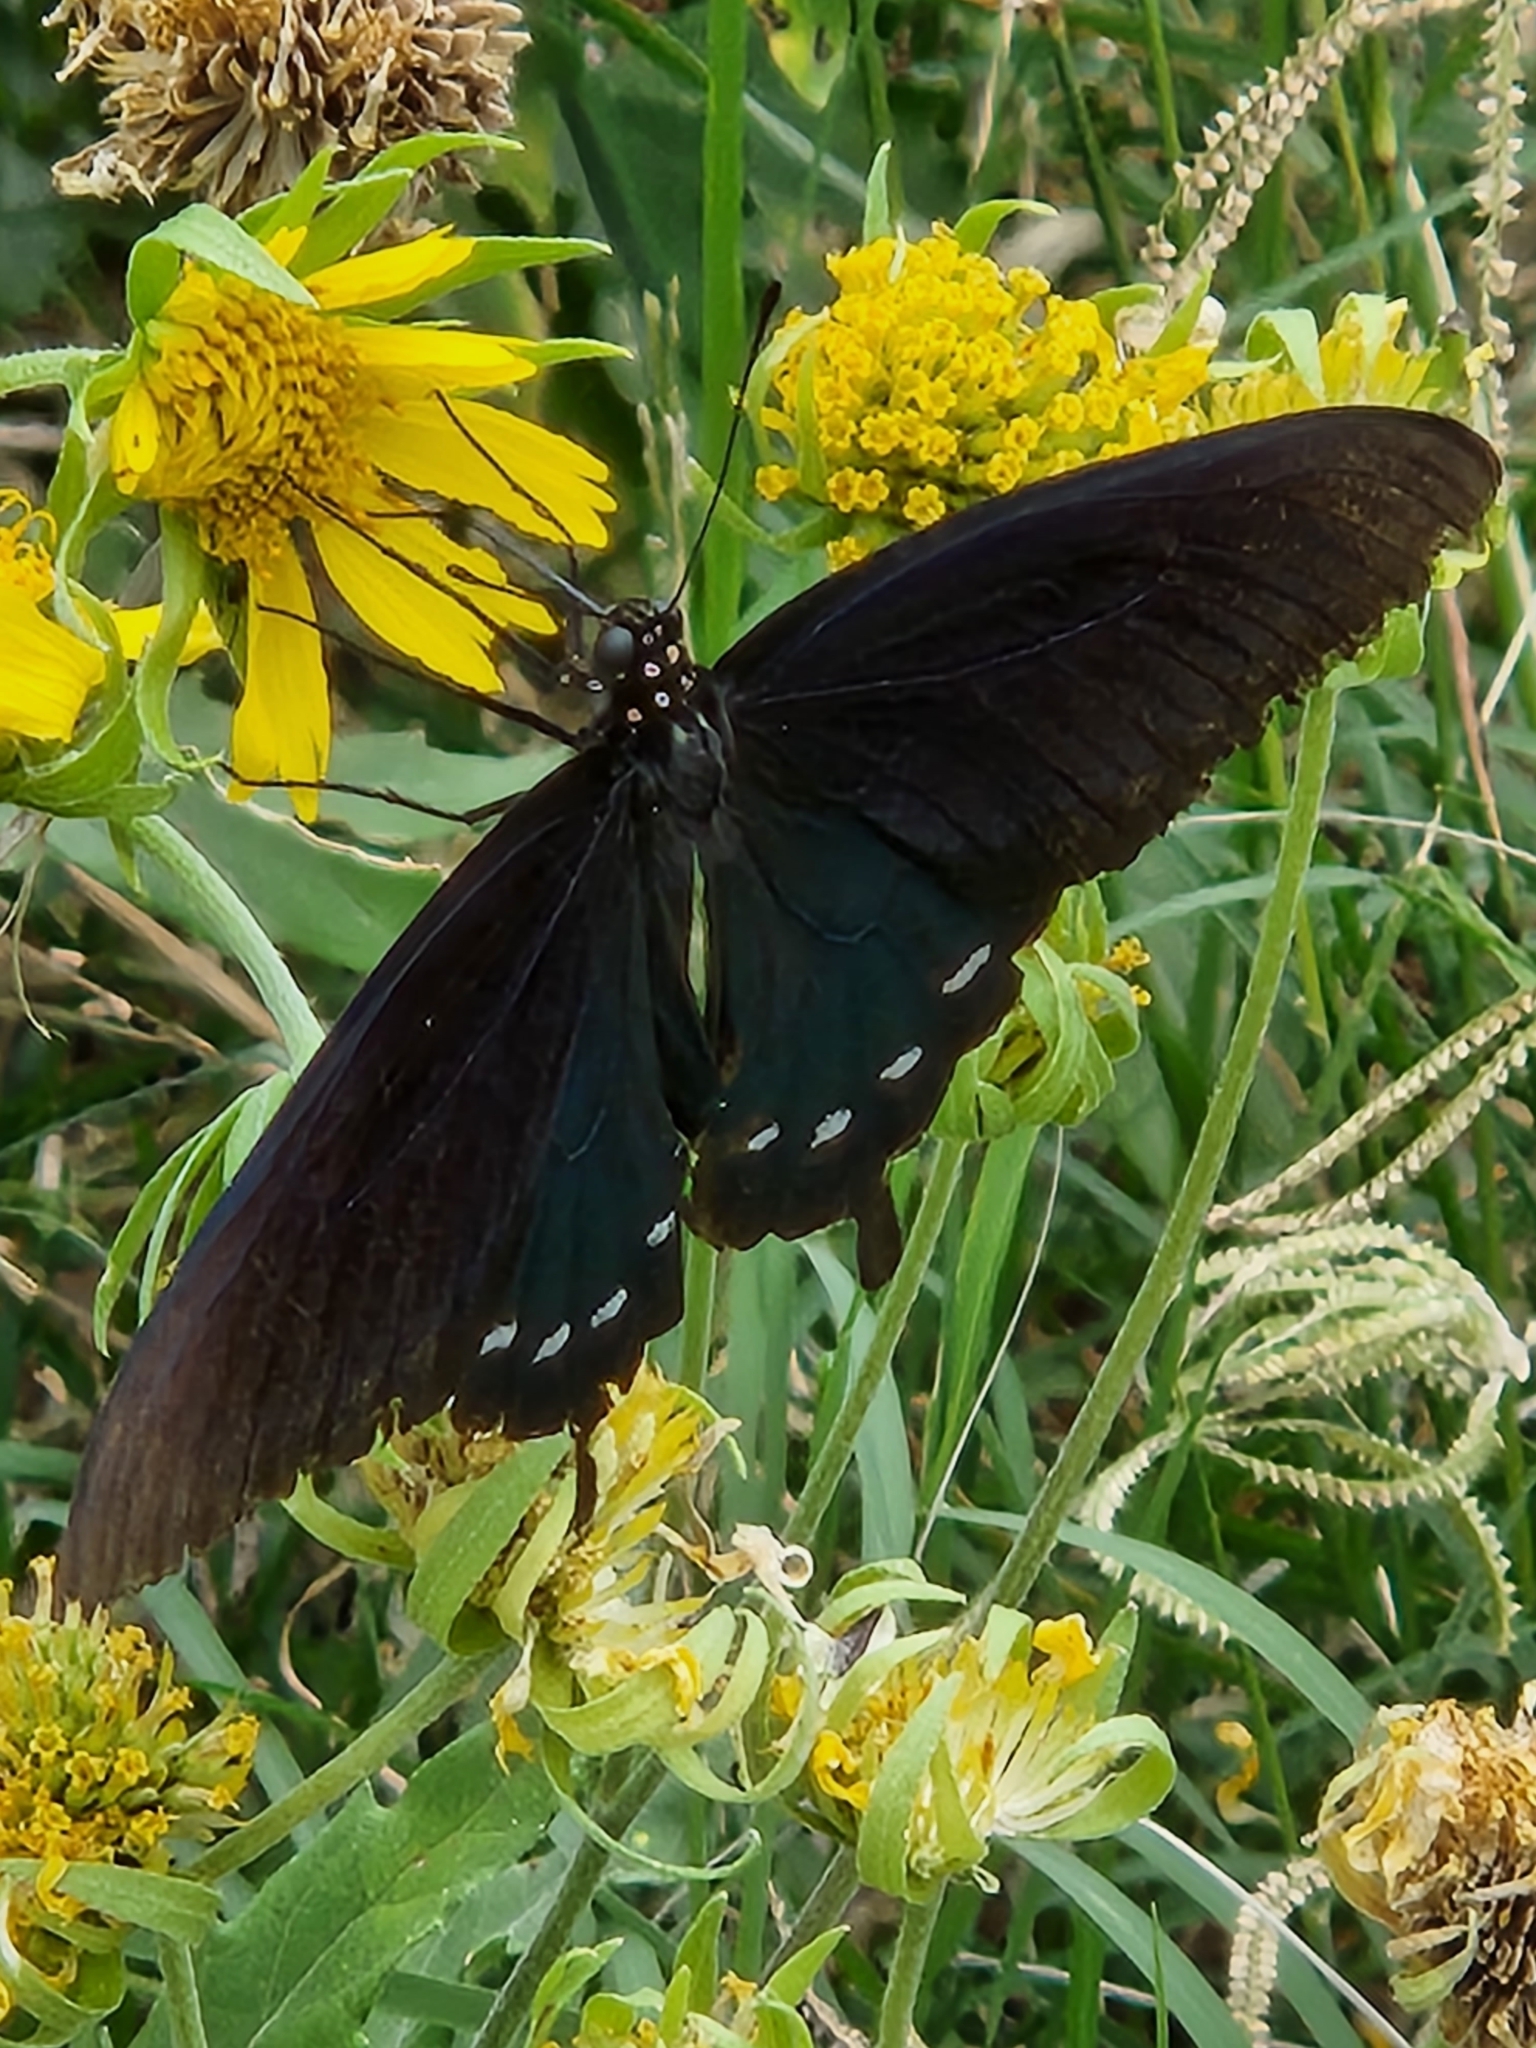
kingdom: Animalia
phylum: Arthropoda
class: Insecta
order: Lepidoptera
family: Papilionidae
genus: Battus
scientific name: Battus philenor
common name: Pipevine swallowtail
